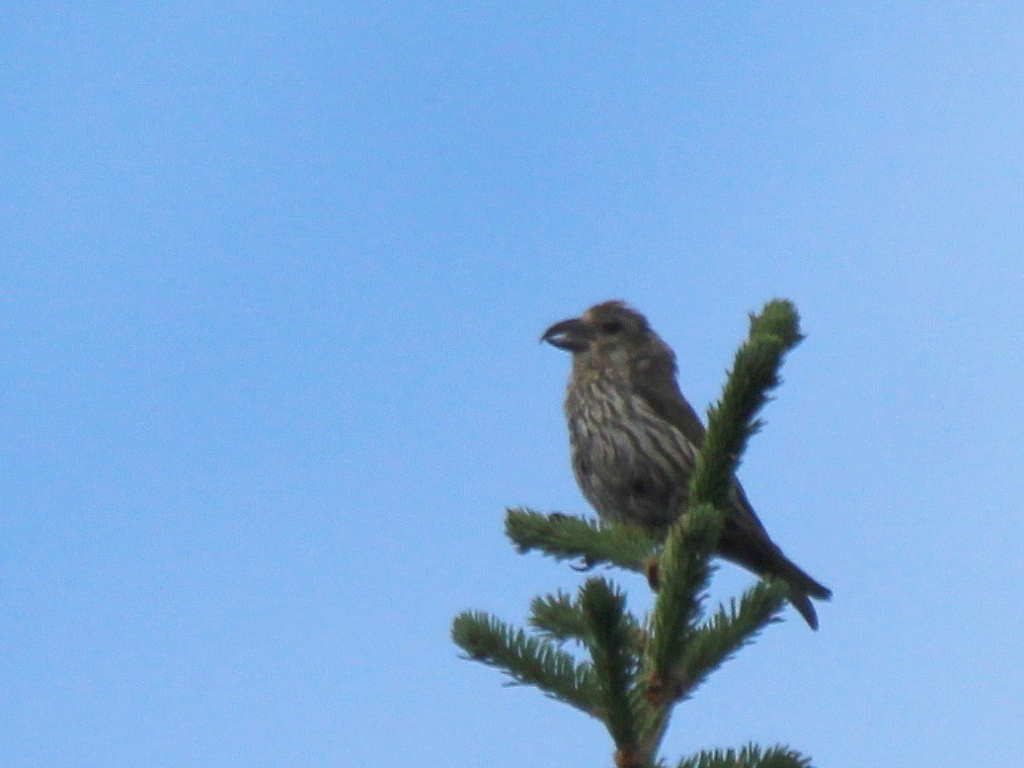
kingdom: Animalia
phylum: Chordata
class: Aves
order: Passeriformes
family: Fringillidae
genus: Loxia
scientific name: Loxia curvirostra
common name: Red crossbill
